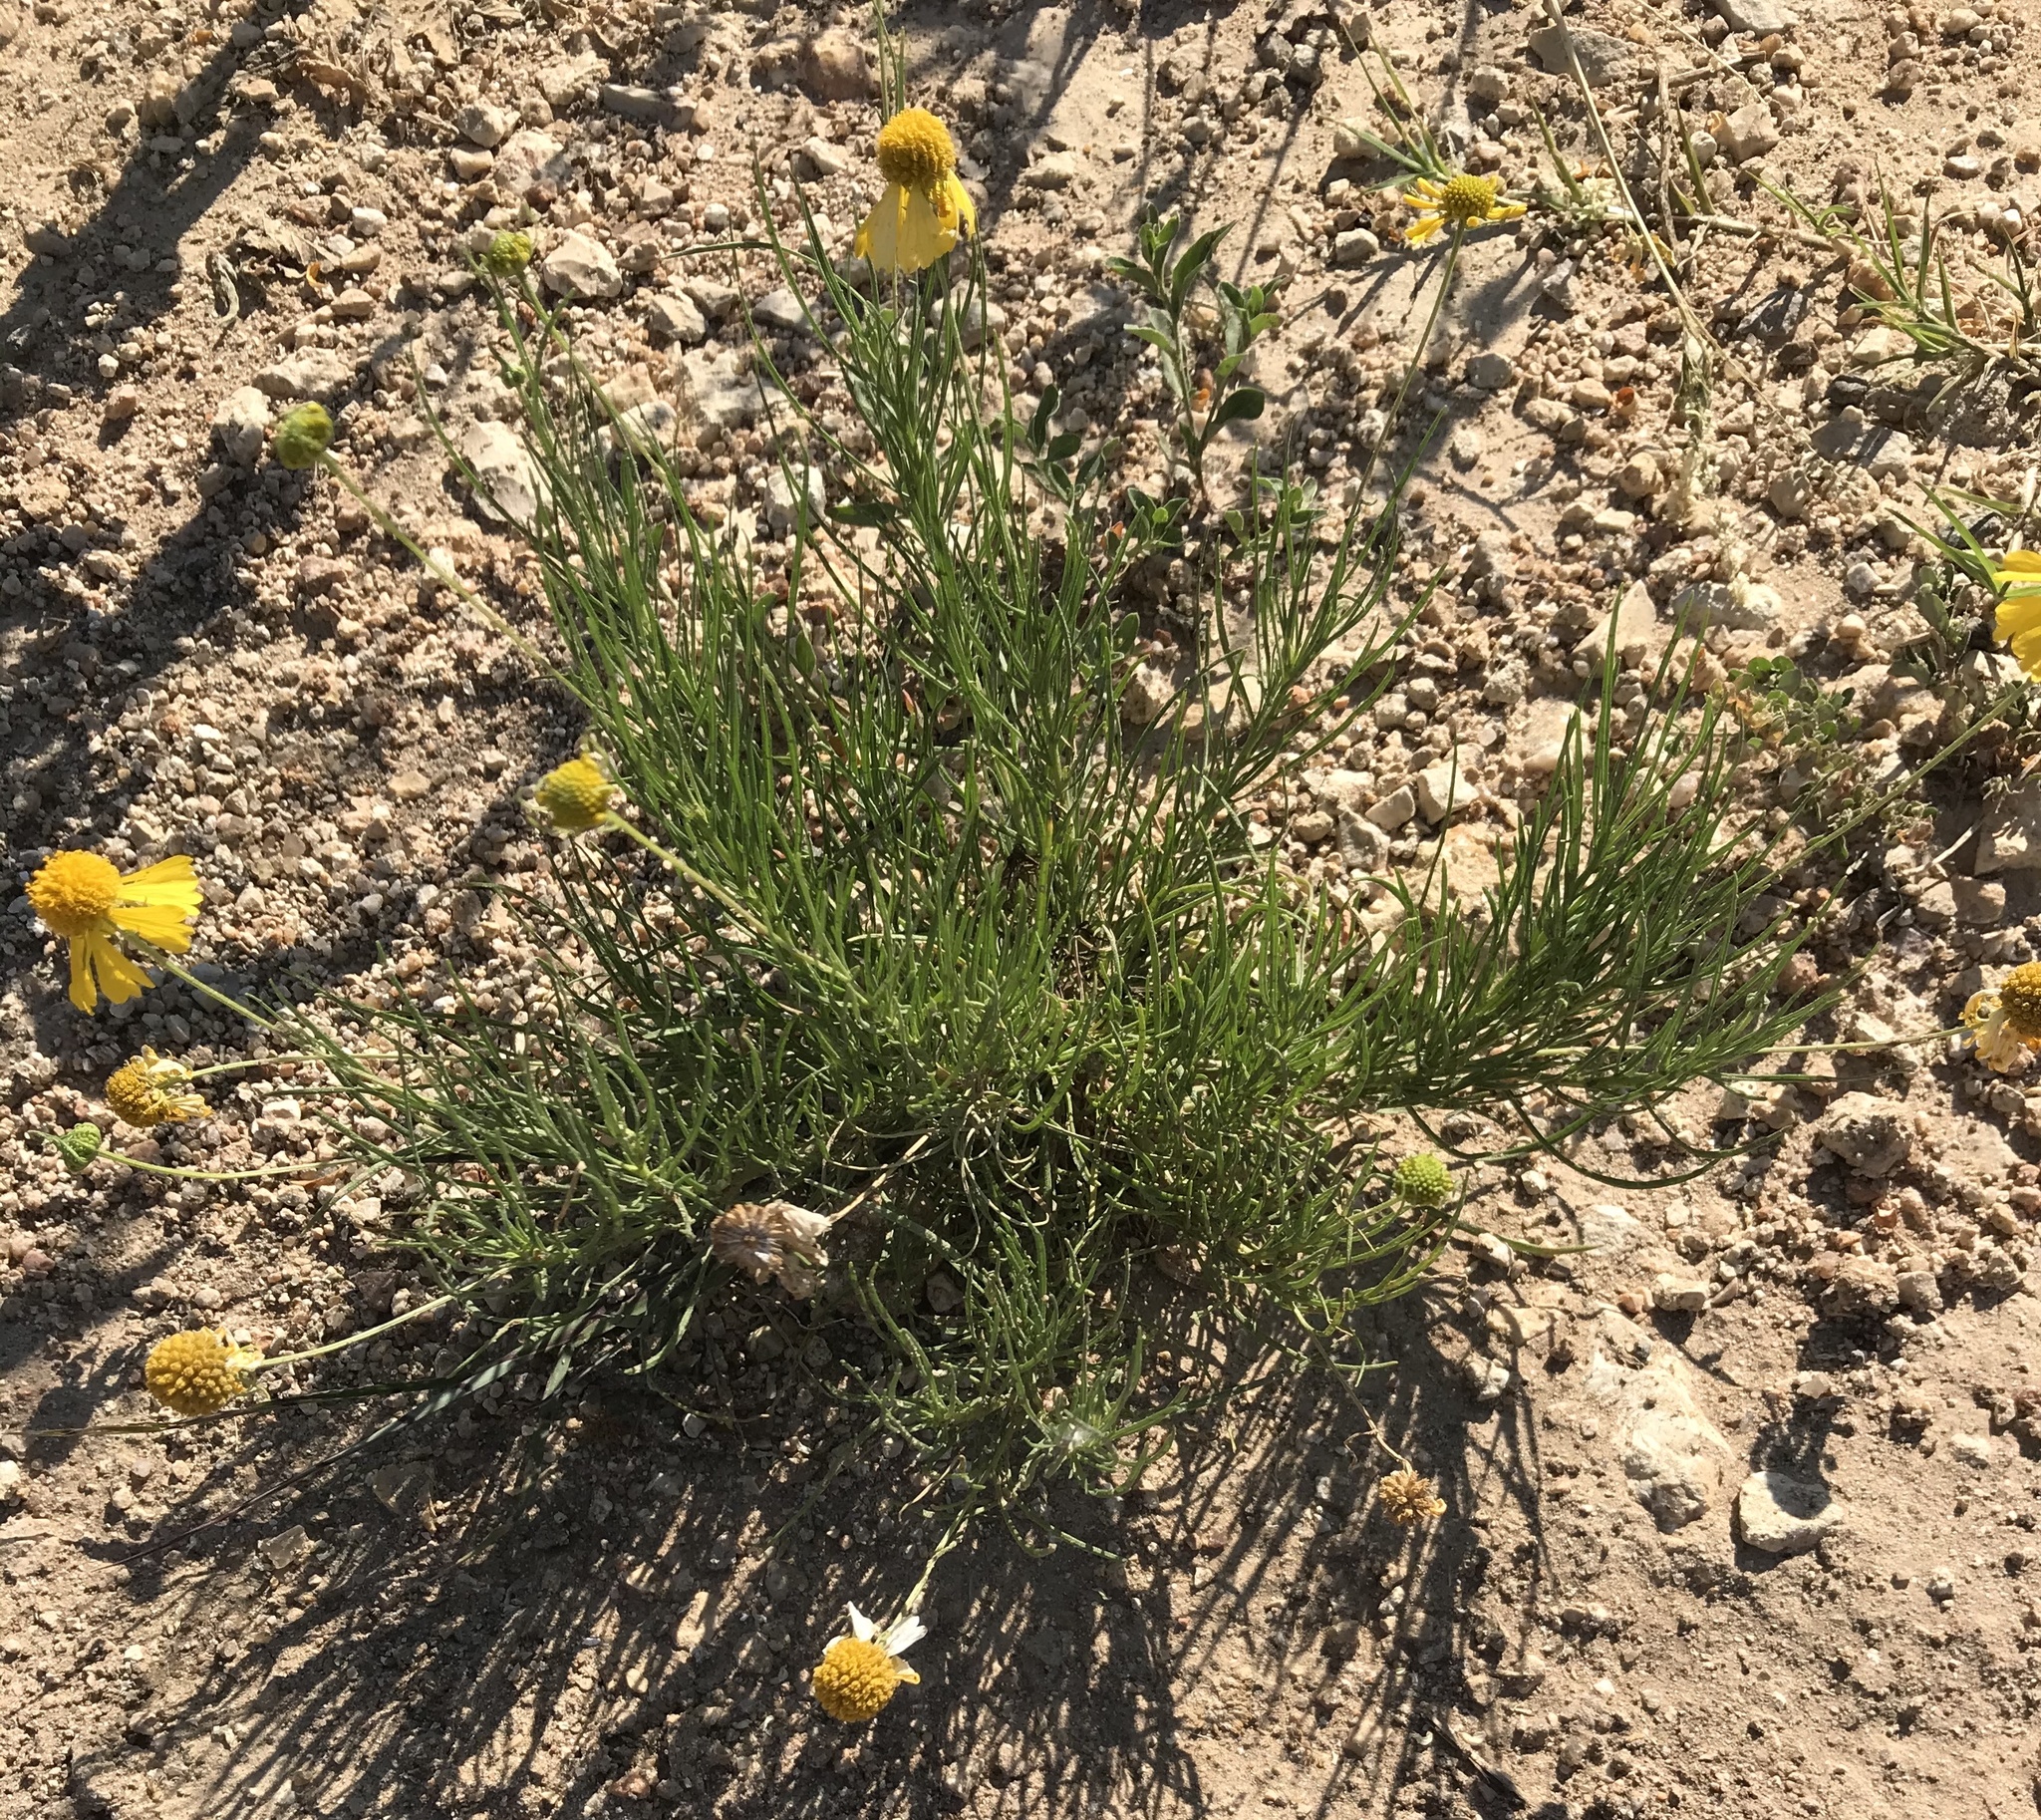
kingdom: Plantae
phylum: Tracheophyta
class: Magnoliopsida
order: Asterales
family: Asteraceae
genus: Helenium
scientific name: Helenium amarum
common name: Bitter sneezeweed
